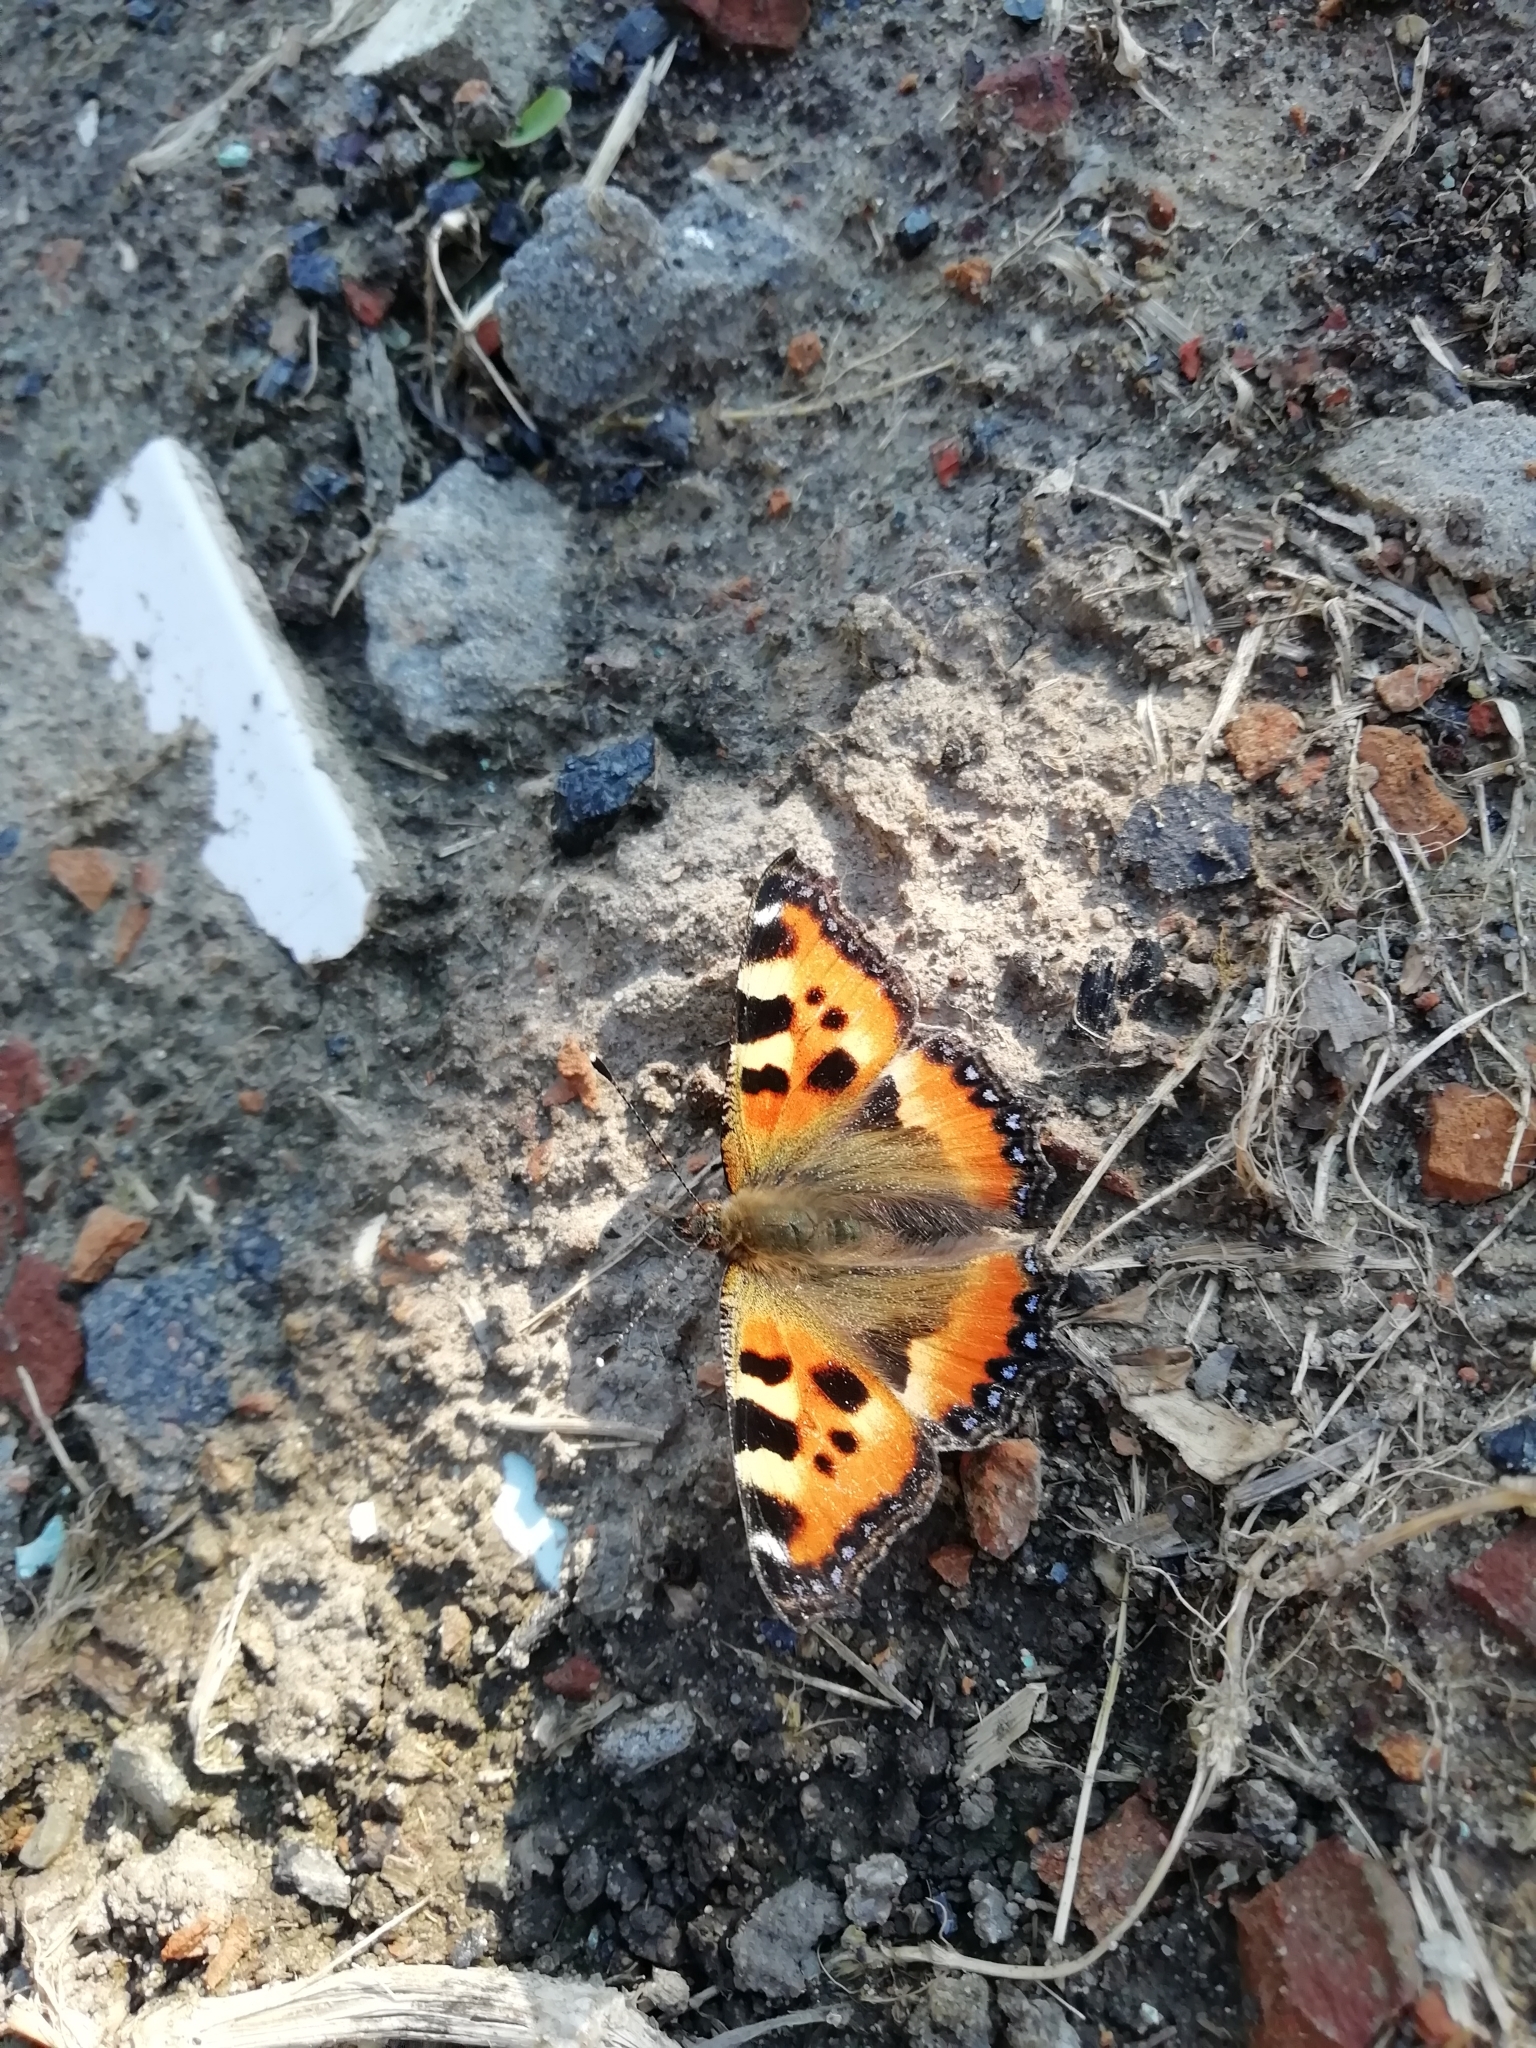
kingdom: Animalia
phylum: Arthropoda
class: Insecta
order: Lepidoptera
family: Nymphalidae
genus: Aglais
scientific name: Aglais urticae
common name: Small tortoiseshell
